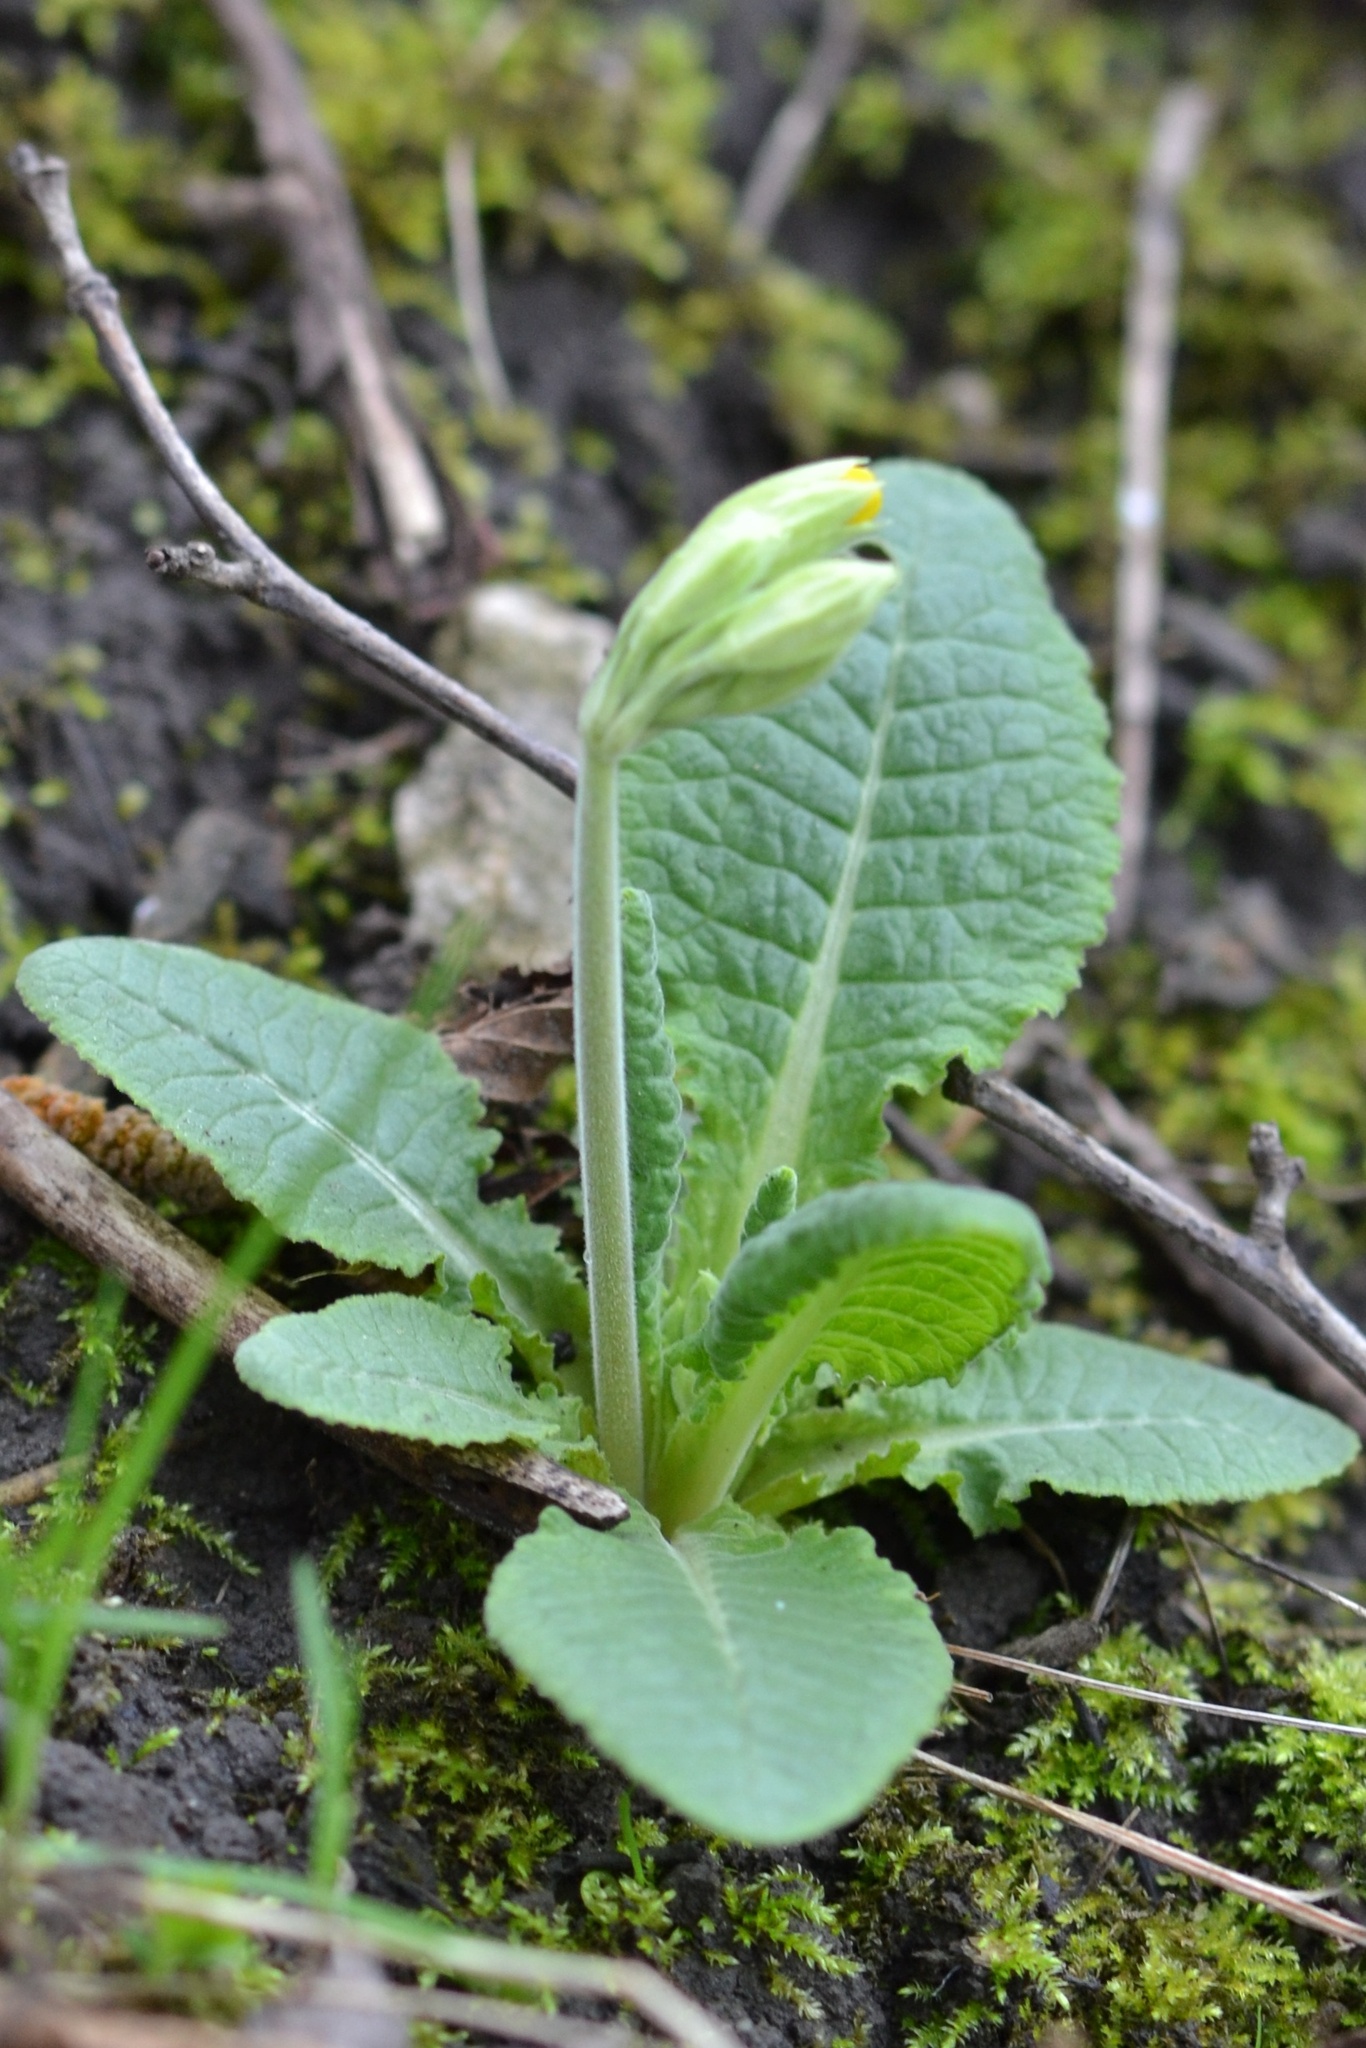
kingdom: Plantae
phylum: Tracheophyta
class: Magnoliopsida
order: Ericales
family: Primulaceae
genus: Primula
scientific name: Primula veris
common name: Cowslip
